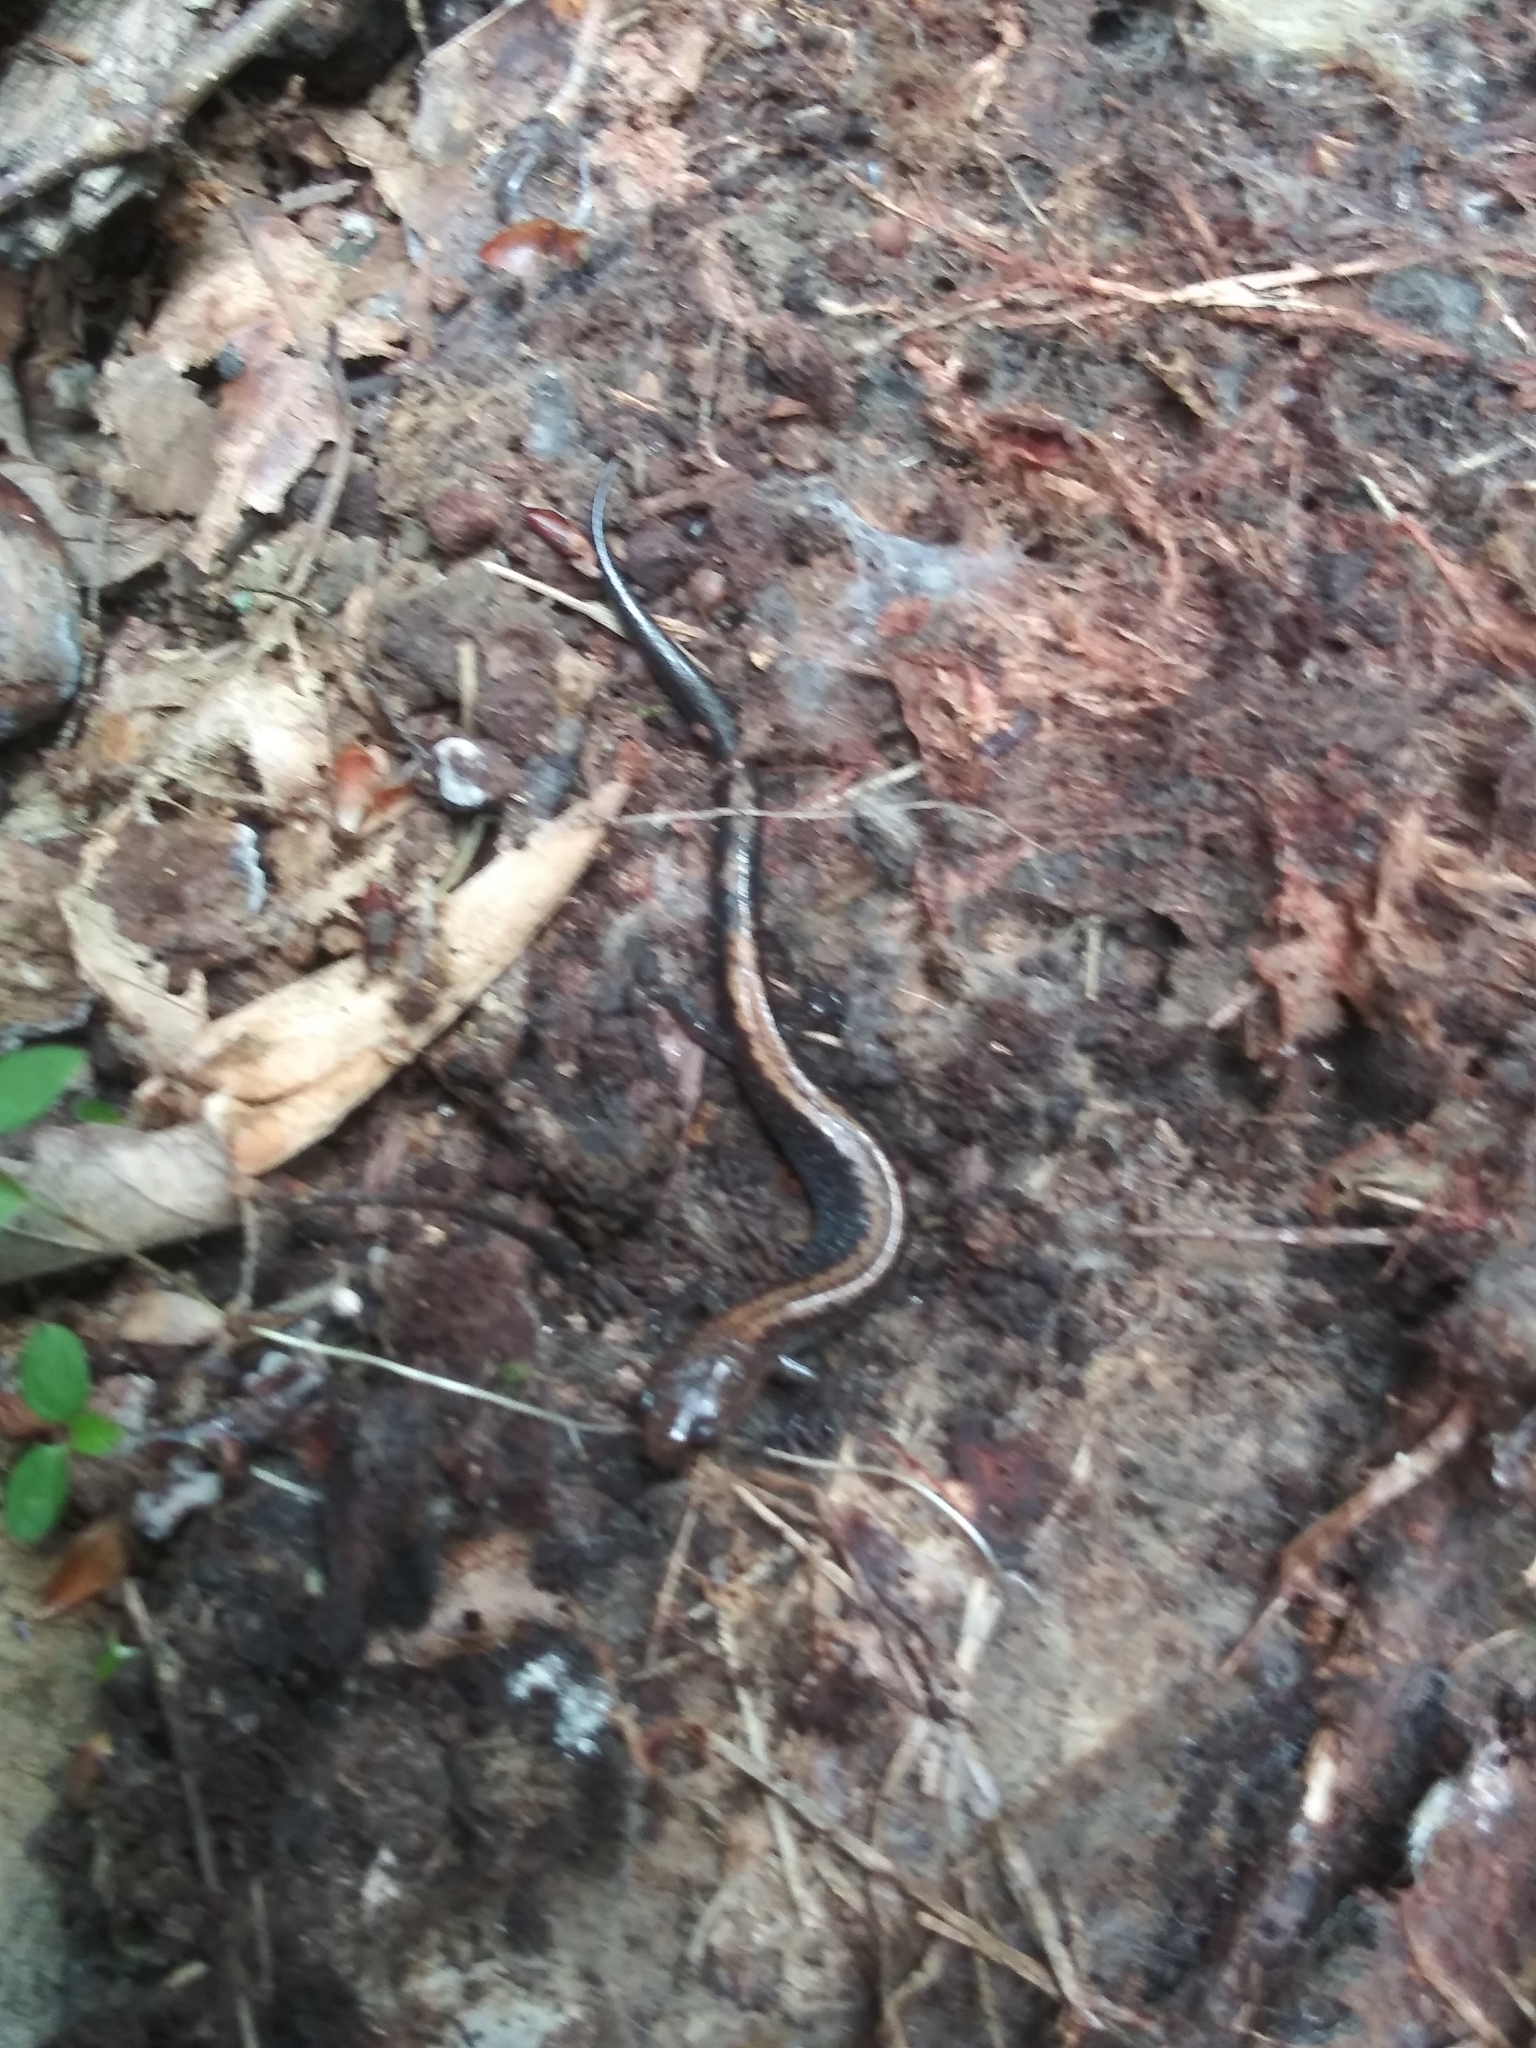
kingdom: Animalia
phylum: Chordata
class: Amphibia
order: Caudata
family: Plethodontidae
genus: Plethodon
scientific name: Plethodon cinereus
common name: Redback salamander
